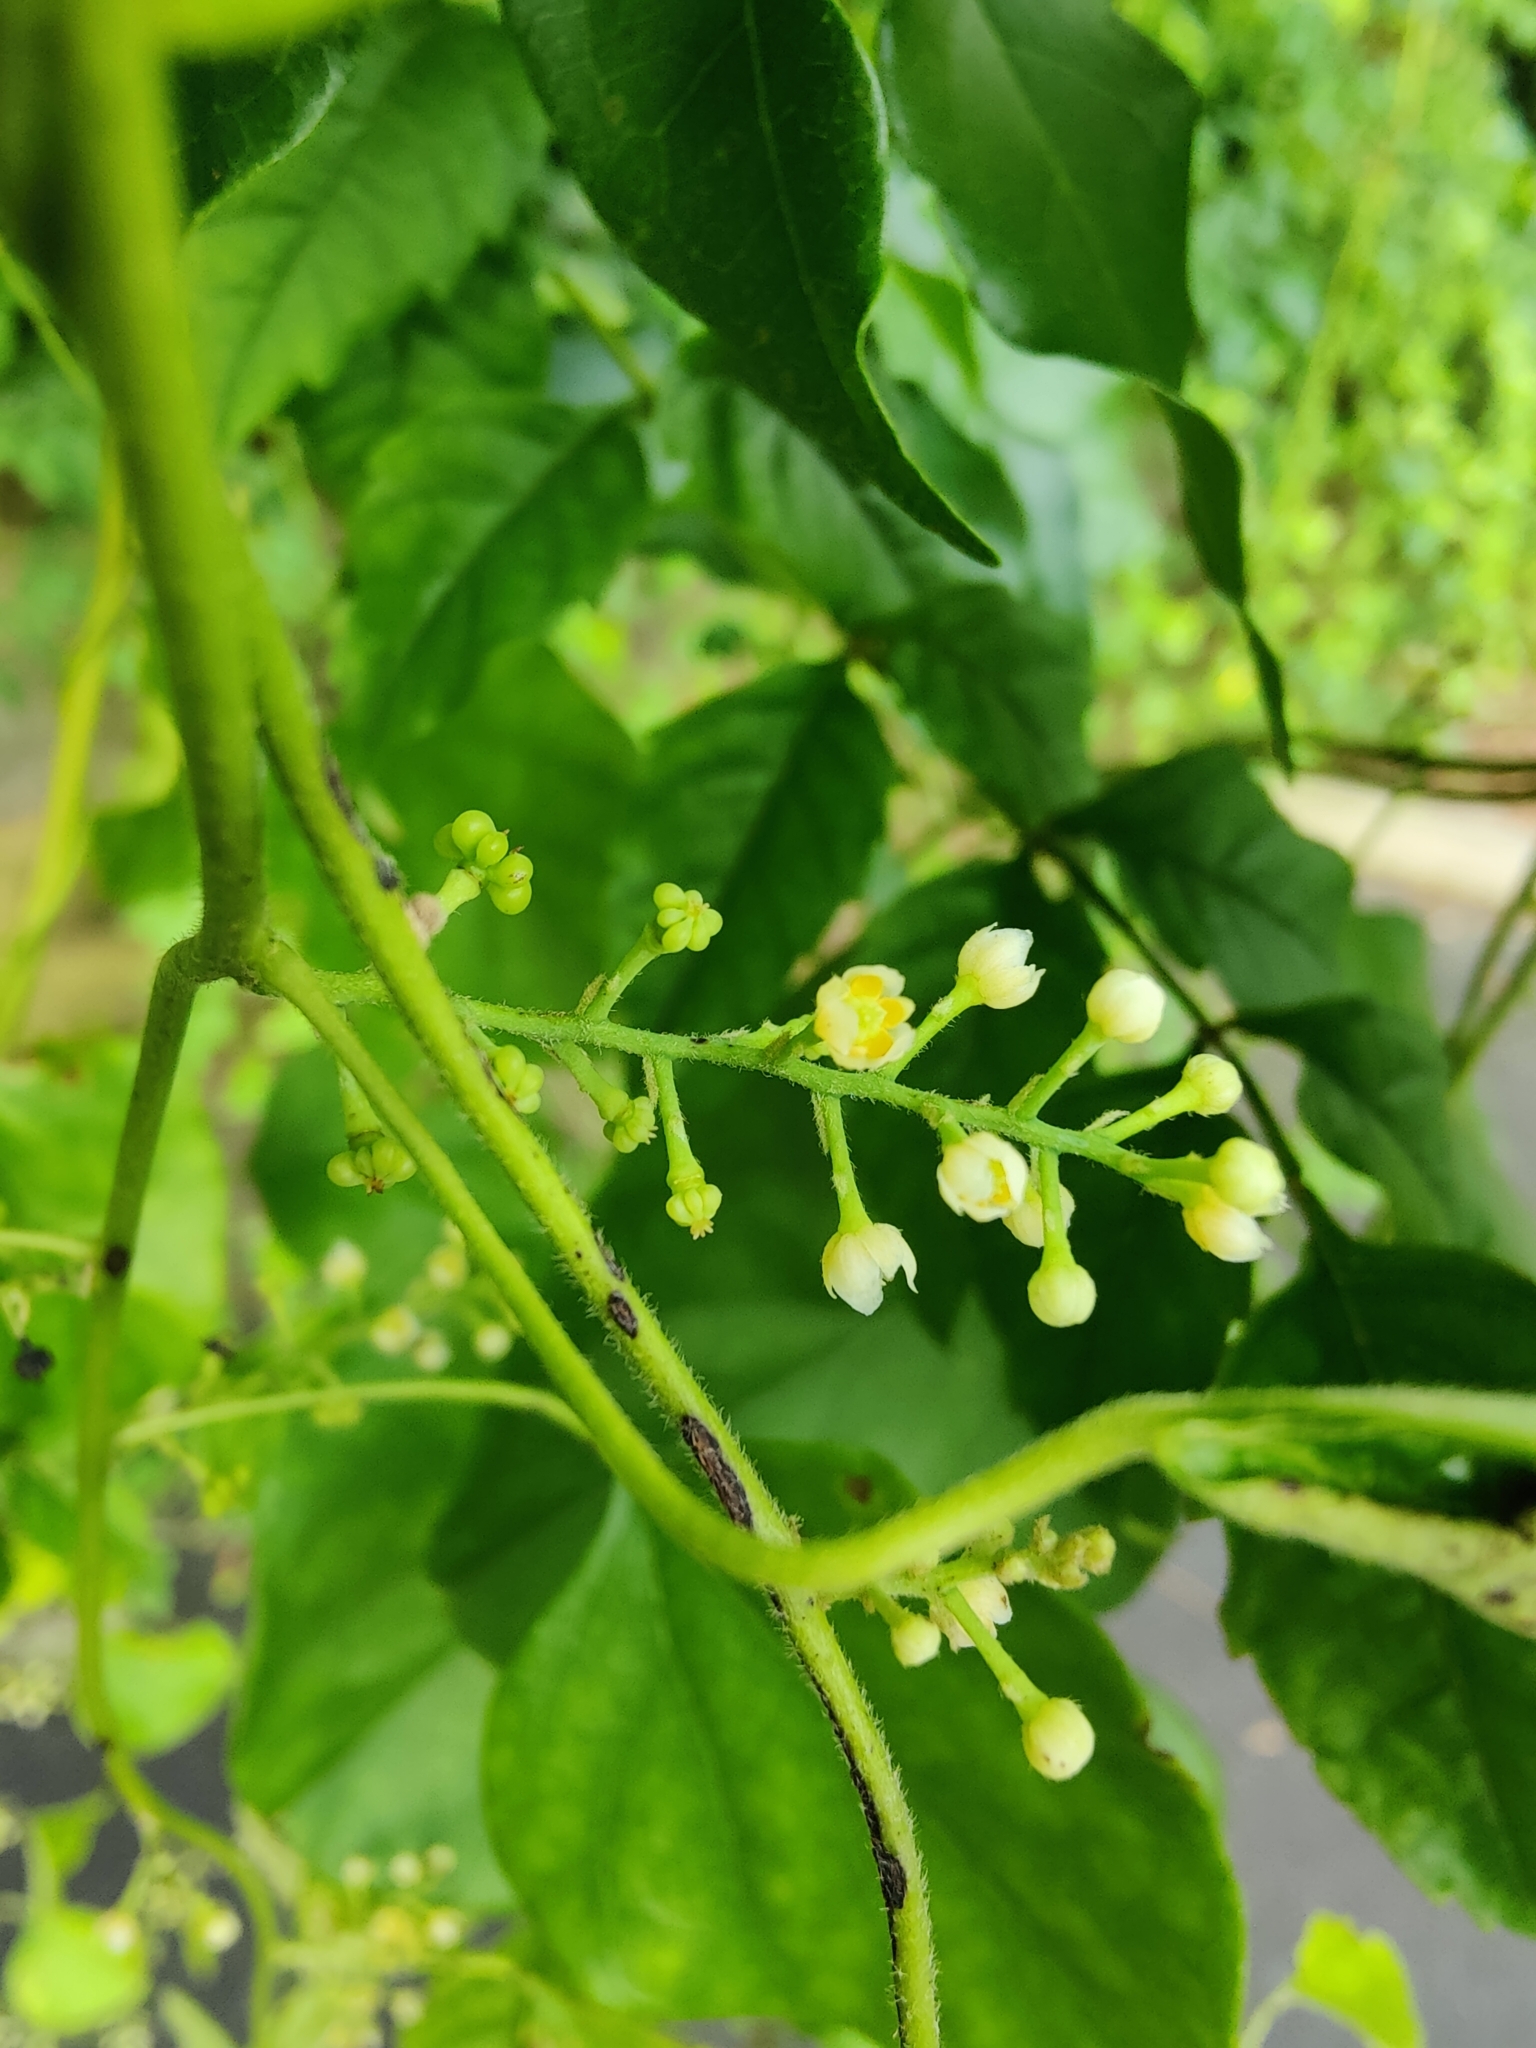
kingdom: Plantae
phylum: Tracheophyta
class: Magnoliopsida
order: Ranunculales
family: Menispermaceae
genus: Cocculus
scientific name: Cocculus carolinus
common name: Carolina moonseed
